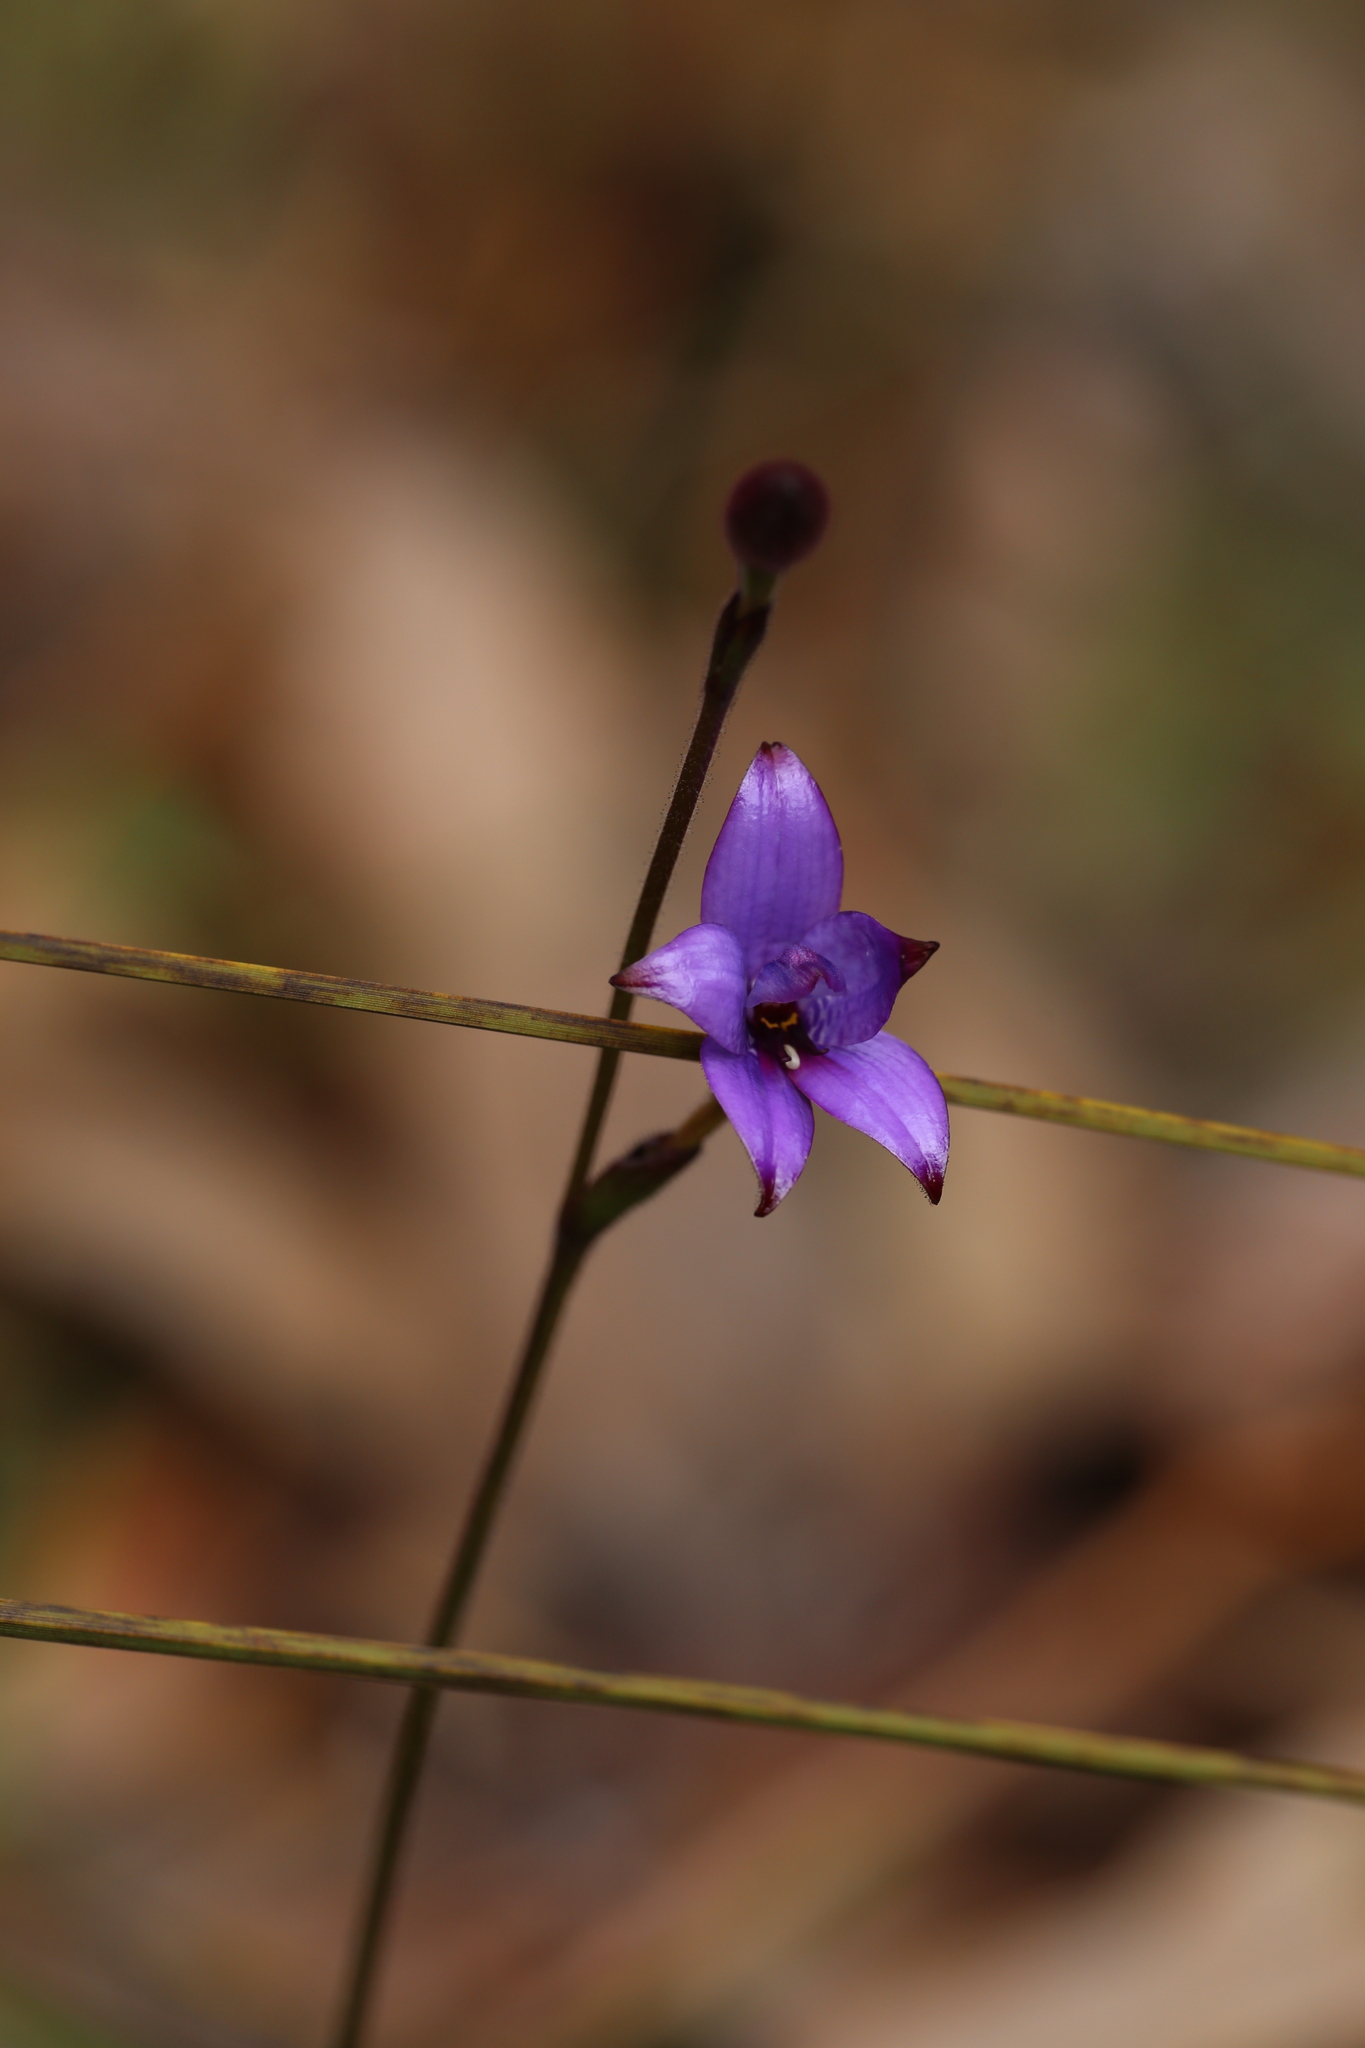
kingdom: Plantae
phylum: Tracheophyta
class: Liliopsida
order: Asparagales
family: Orchidaceae
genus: Caladenia
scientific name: Caladenia brunonis
